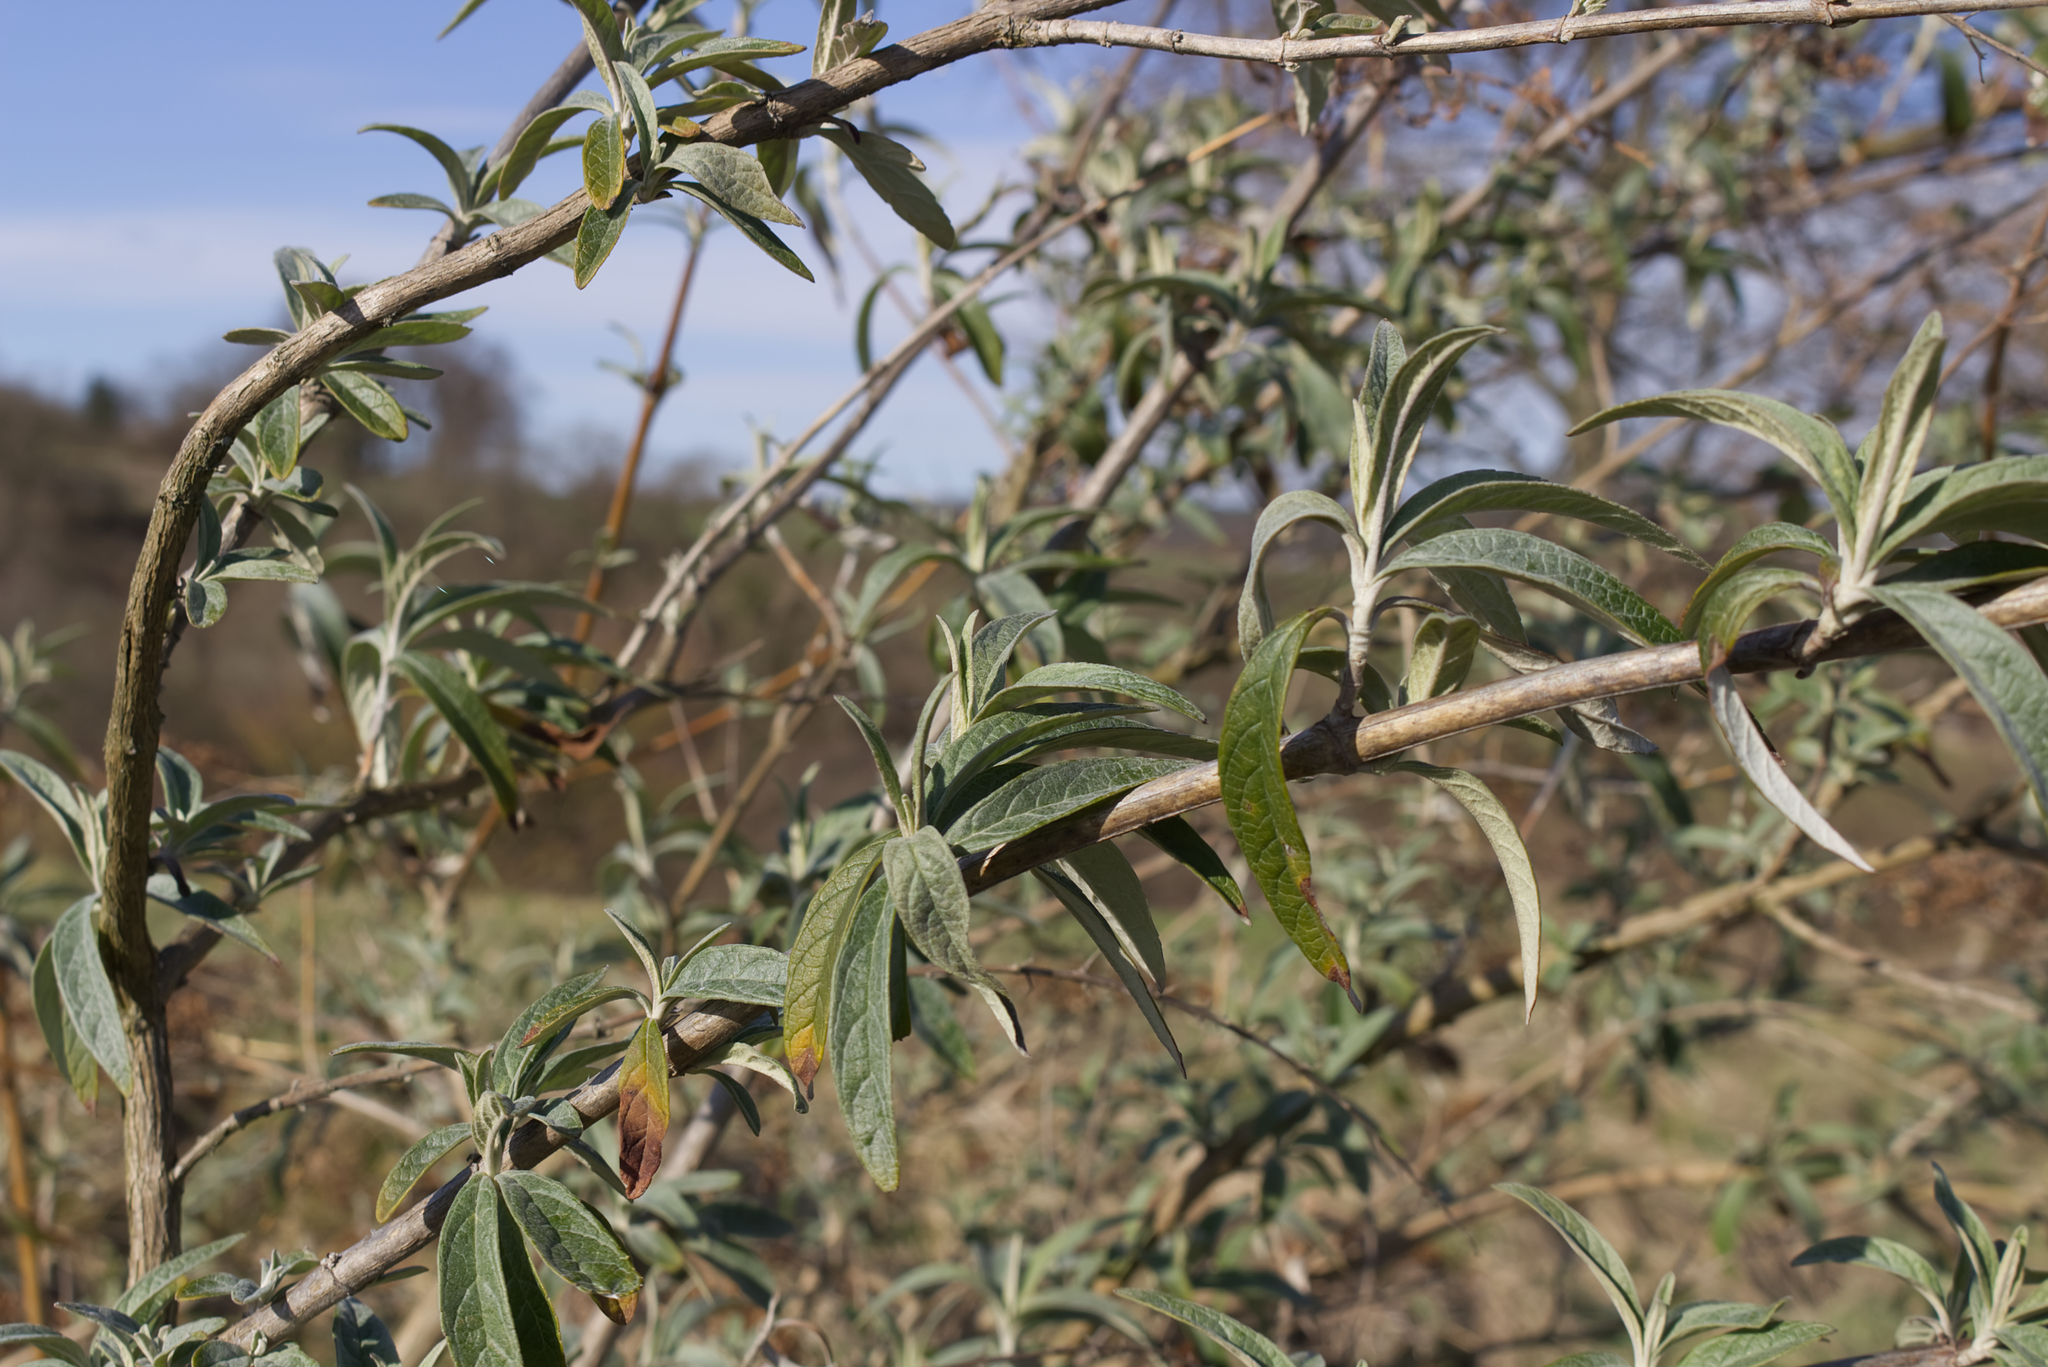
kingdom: Plantae
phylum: Tracheophyta
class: Magnoliopsida
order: Lamiales
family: Scrophulariaceae
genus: Buddleja
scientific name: Buddleja davidii
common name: Butterfly-bush
